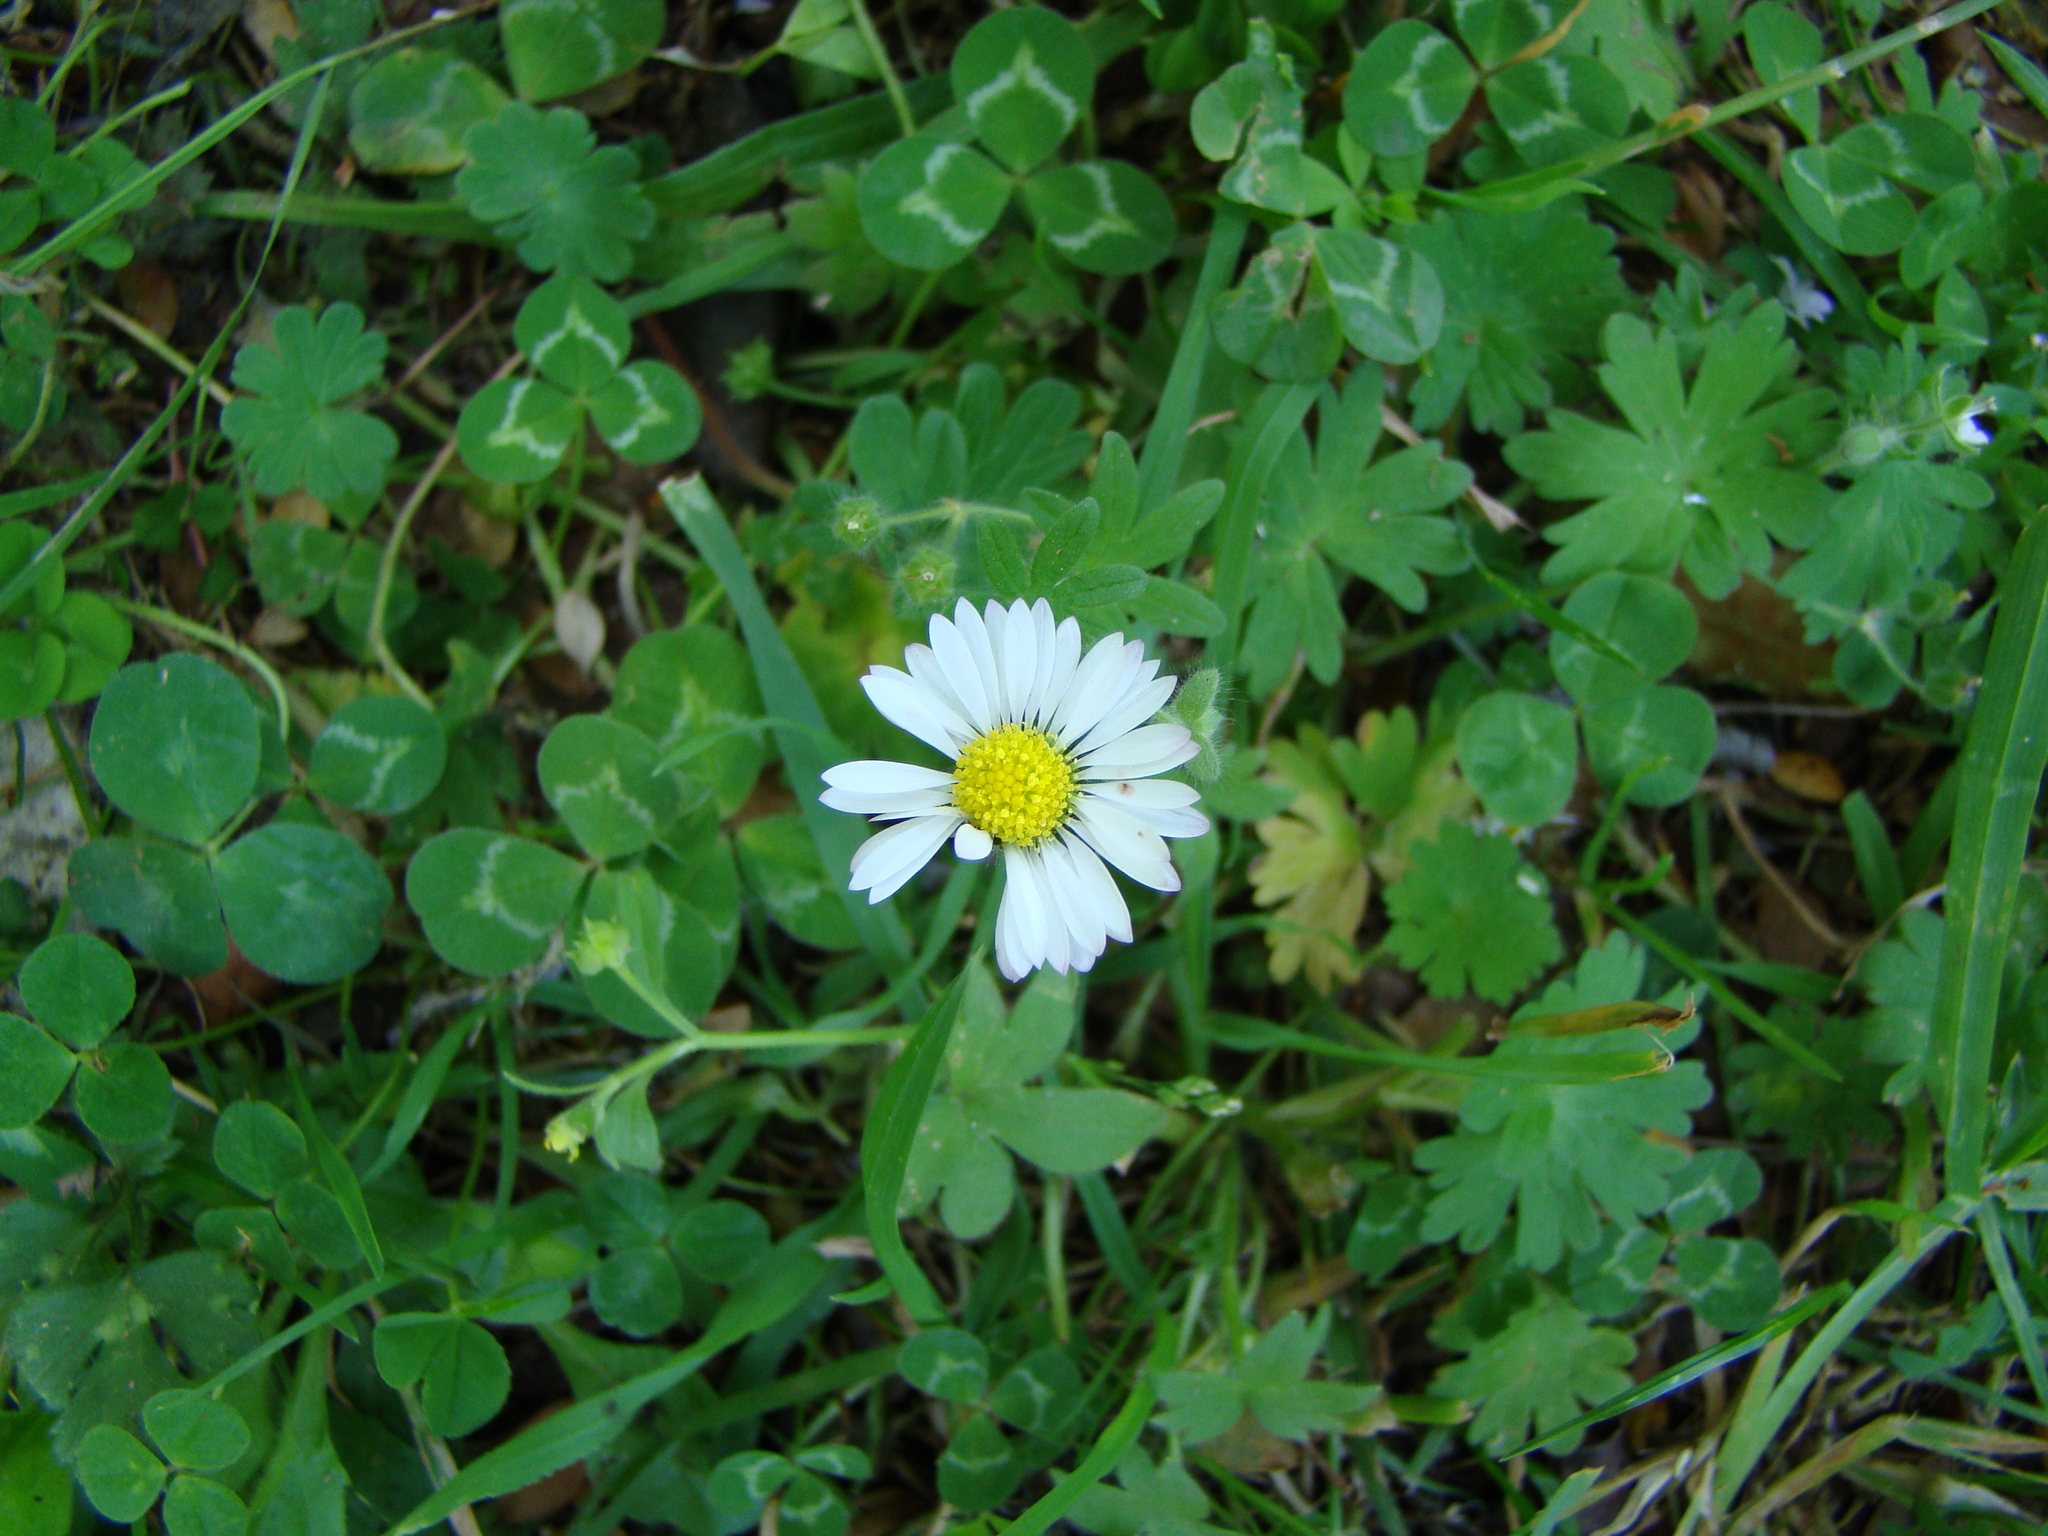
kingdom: Plantae
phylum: Tracheophyta
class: Magnoliopsida
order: Asterales
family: Asteraceae
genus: Bellis
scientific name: Bellis perennis
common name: Lawndaisy
